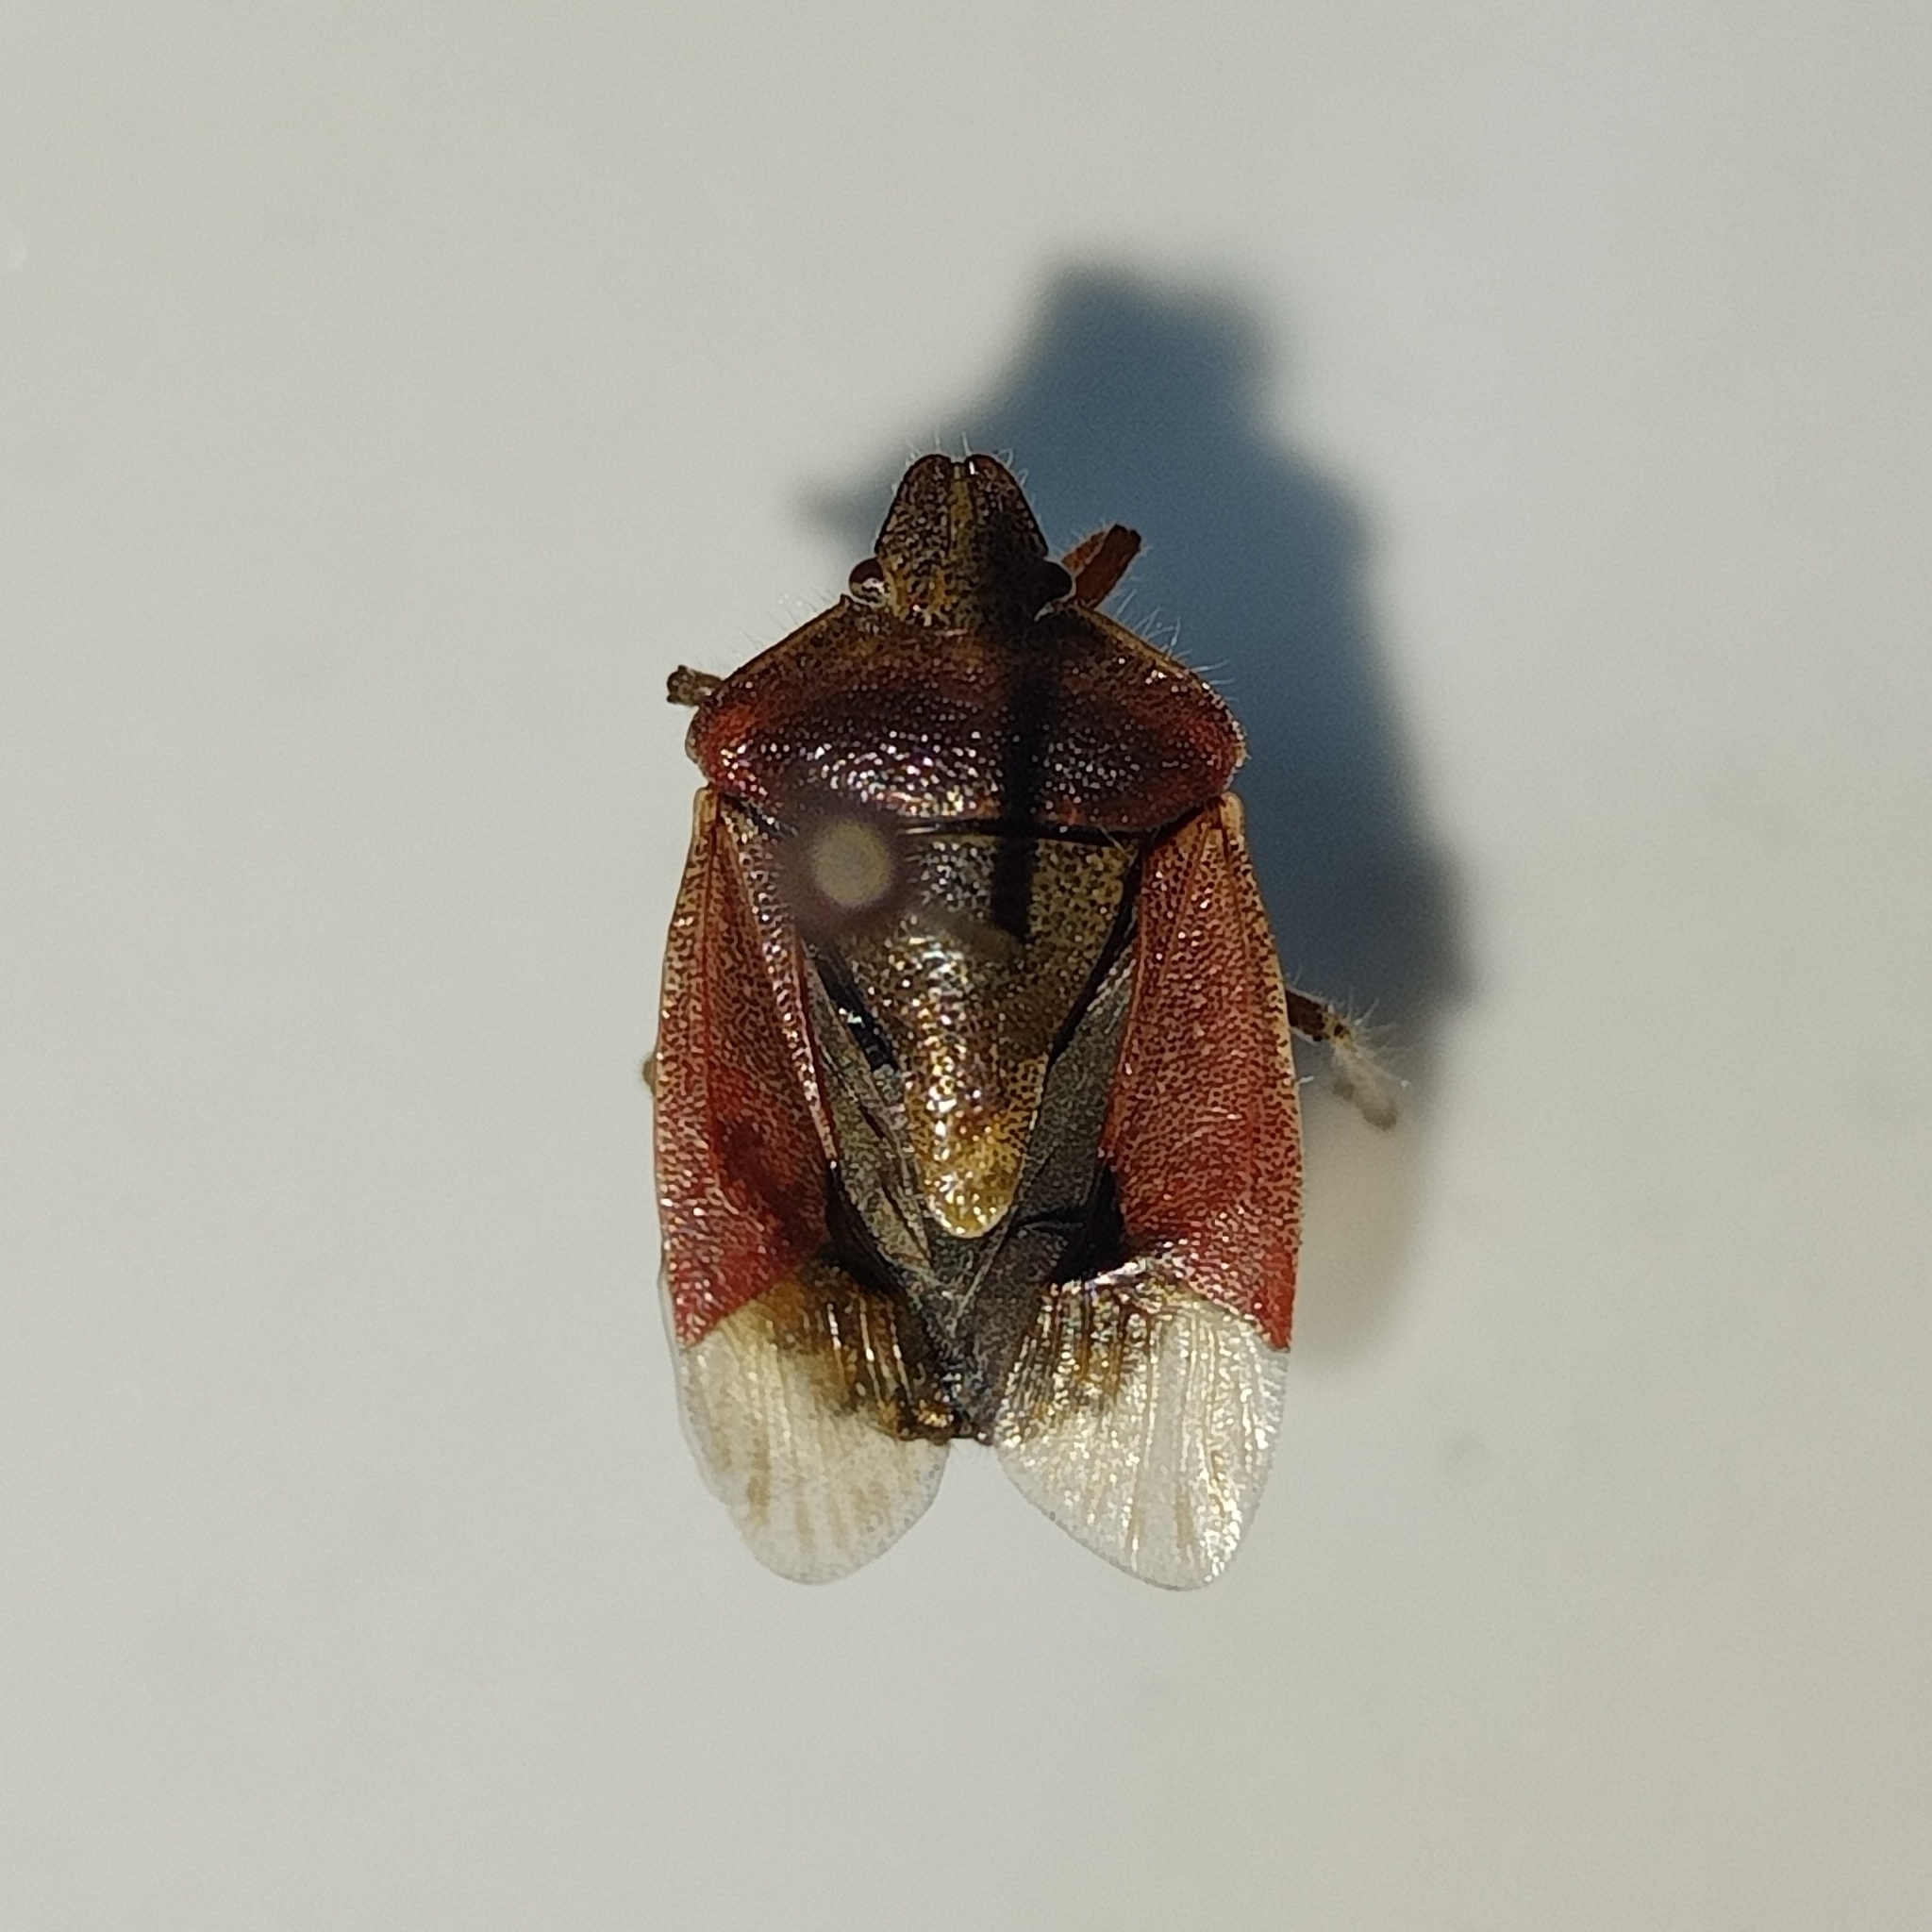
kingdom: Animalia
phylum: Arthropoda
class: Insecta
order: Hemiptera
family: Pentatomidae
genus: Dolycoris
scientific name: Dolycoris baccarum
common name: Sloe bug
